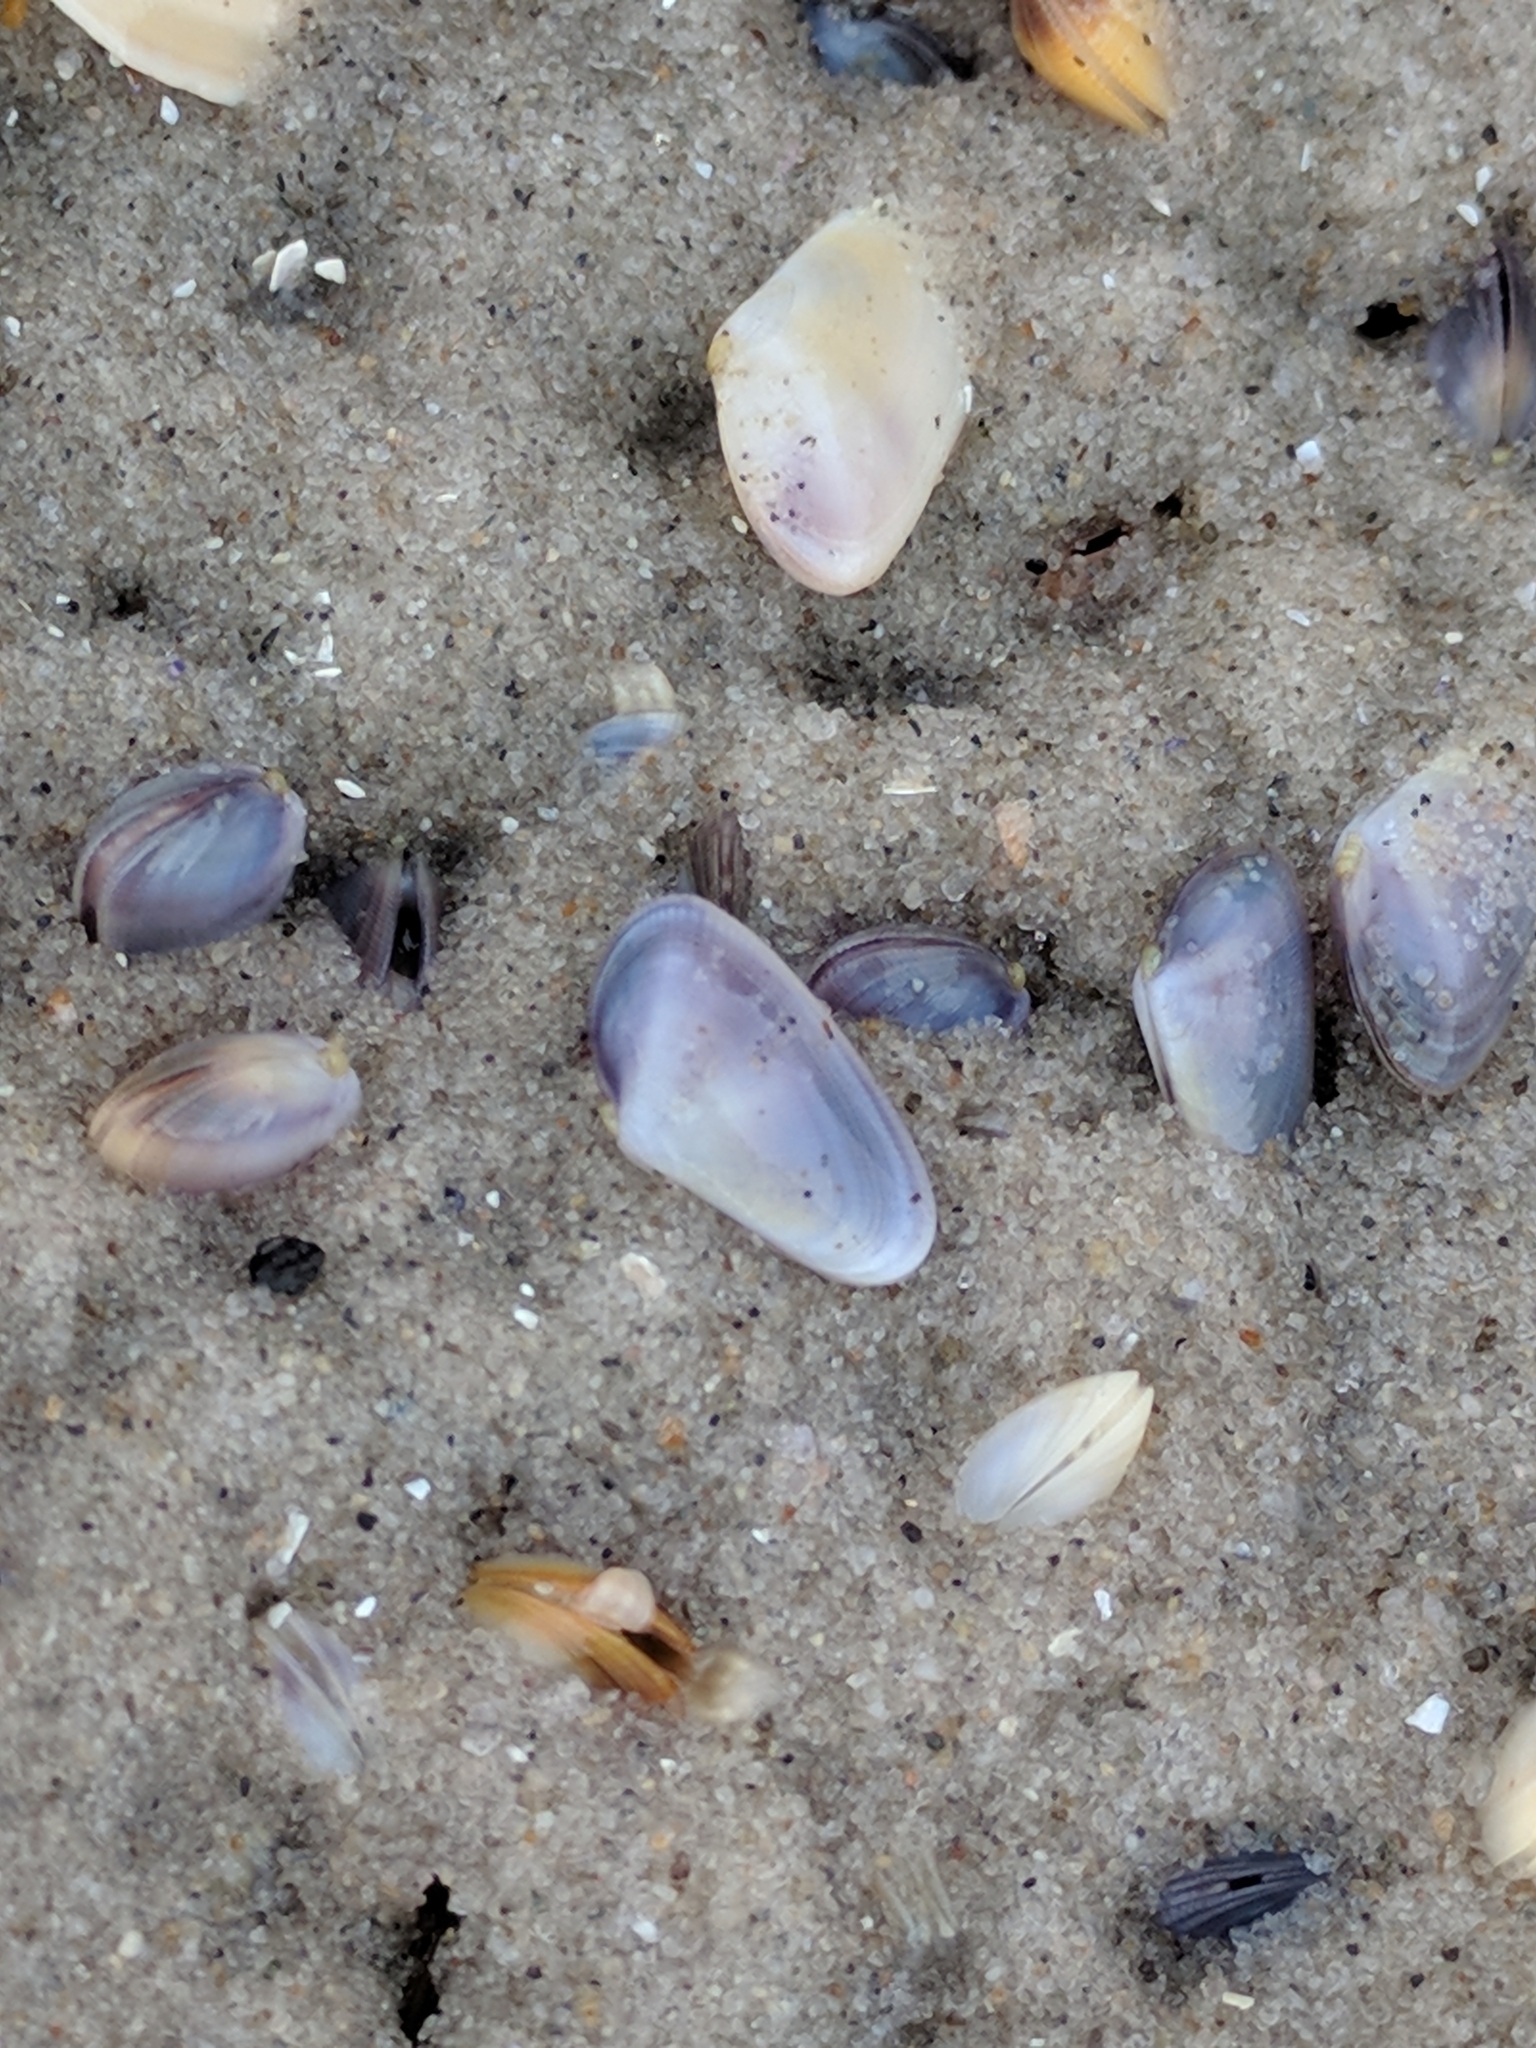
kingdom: Animalia
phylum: Mollusca
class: Bivalvia
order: Cardiida
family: Donacidae
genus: Donax
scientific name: Donax fossor
